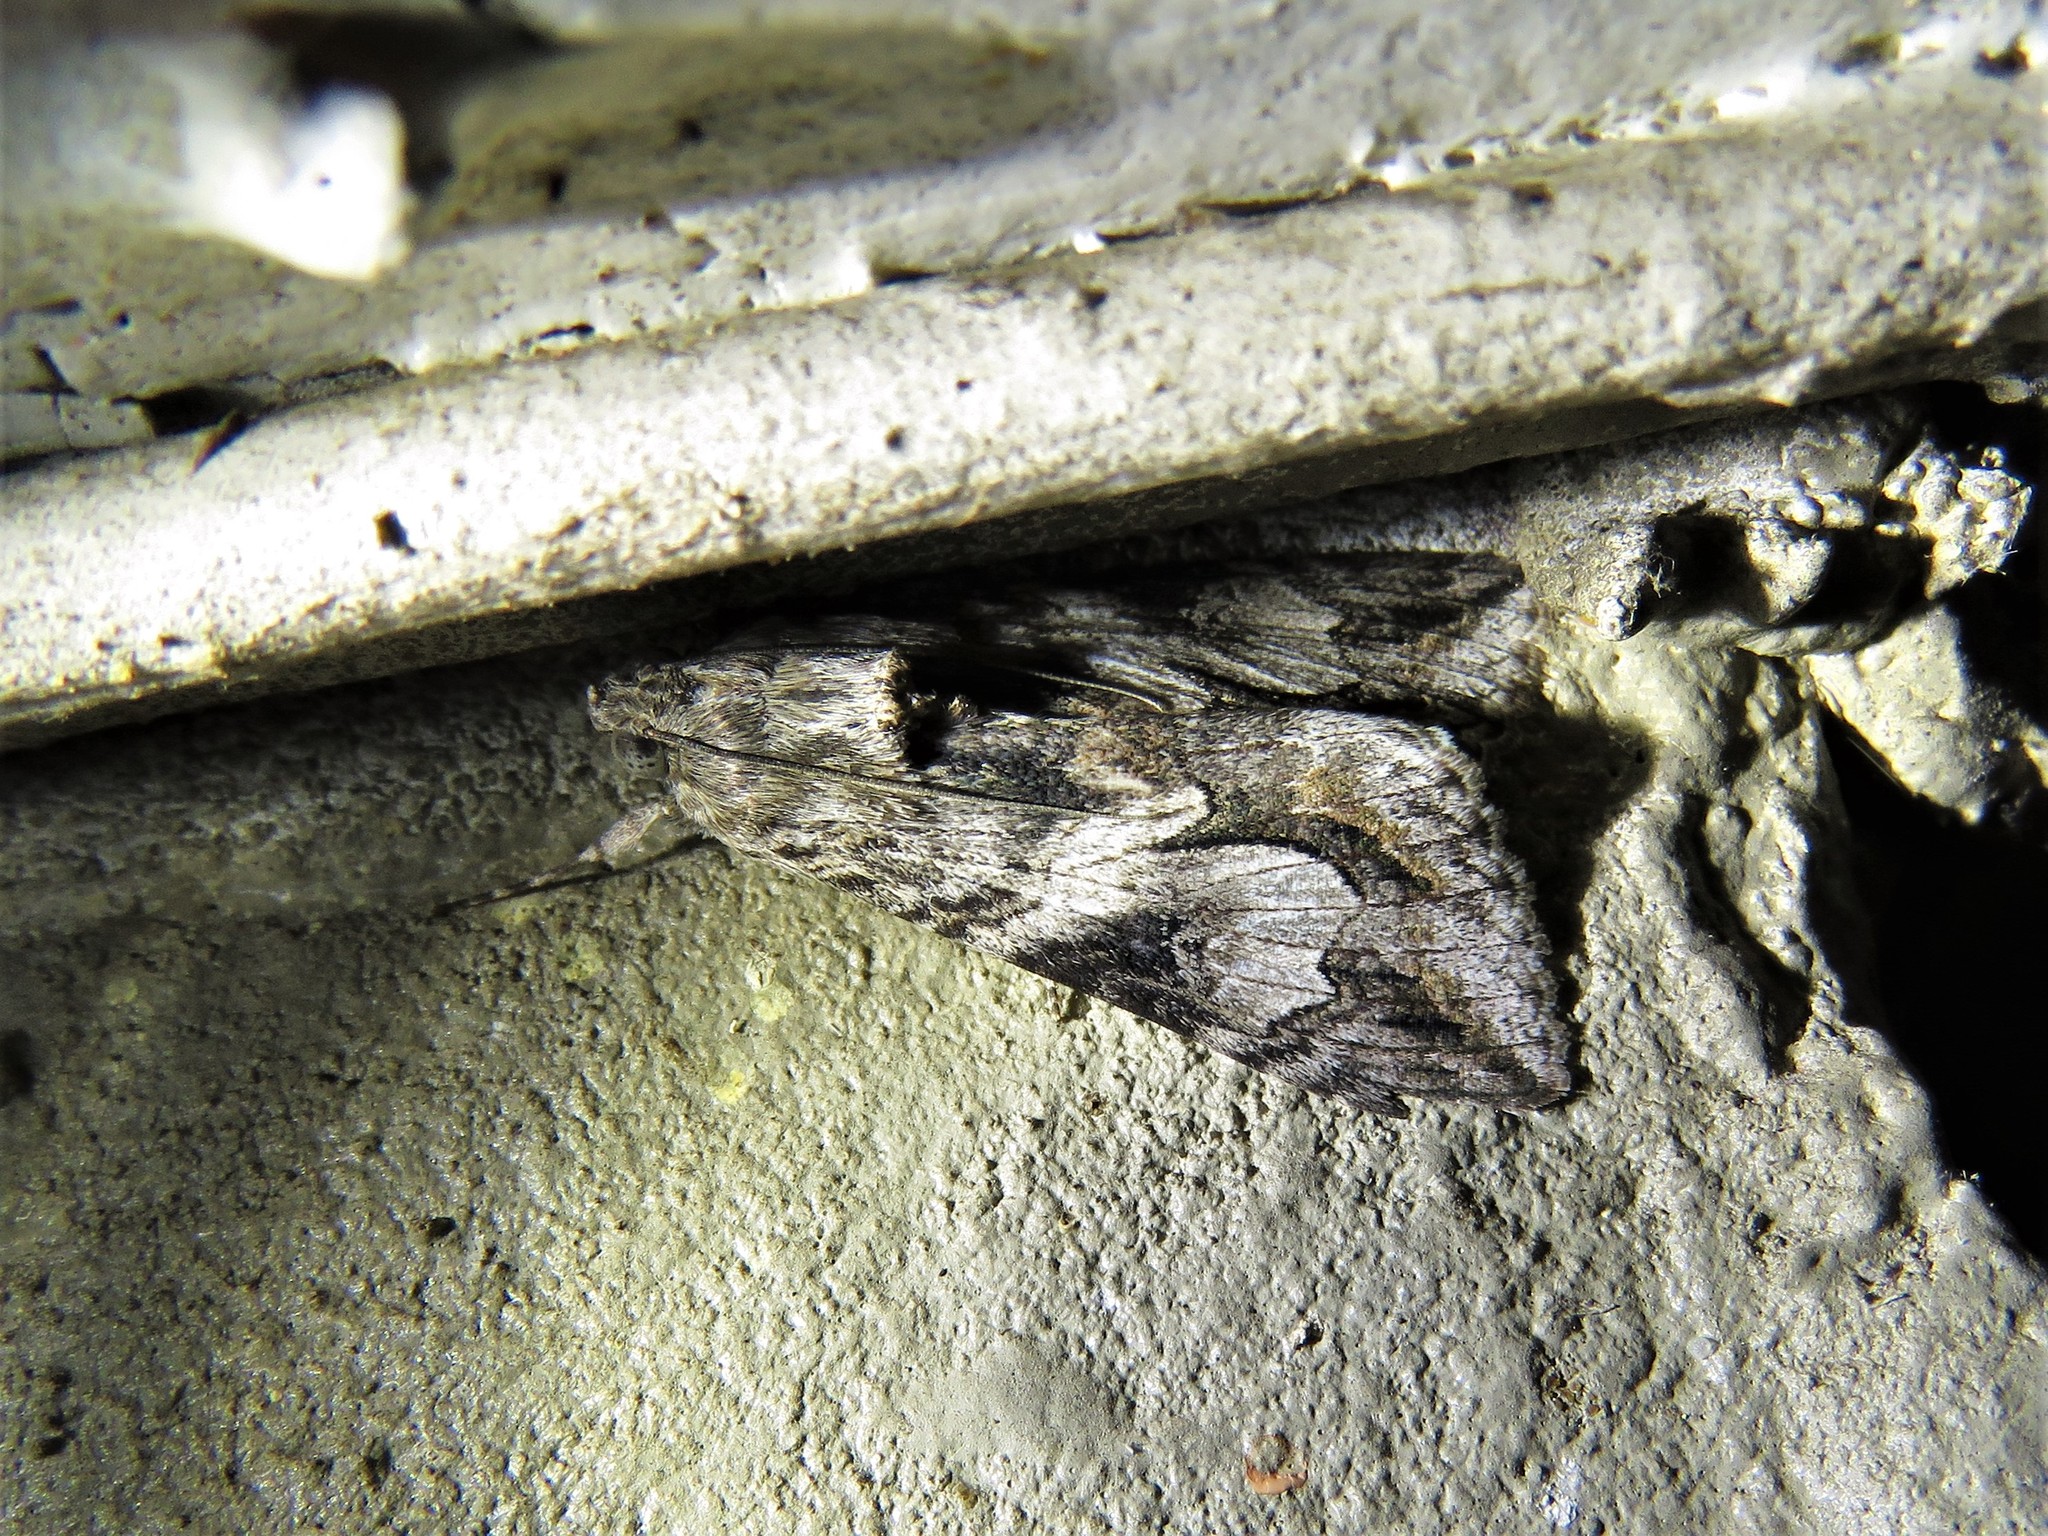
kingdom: Animalia
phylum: Arthropoda
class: Insecta
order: Lepidoptera
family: Erebidae
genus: Melipotis
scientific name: Melipotis jucunda
